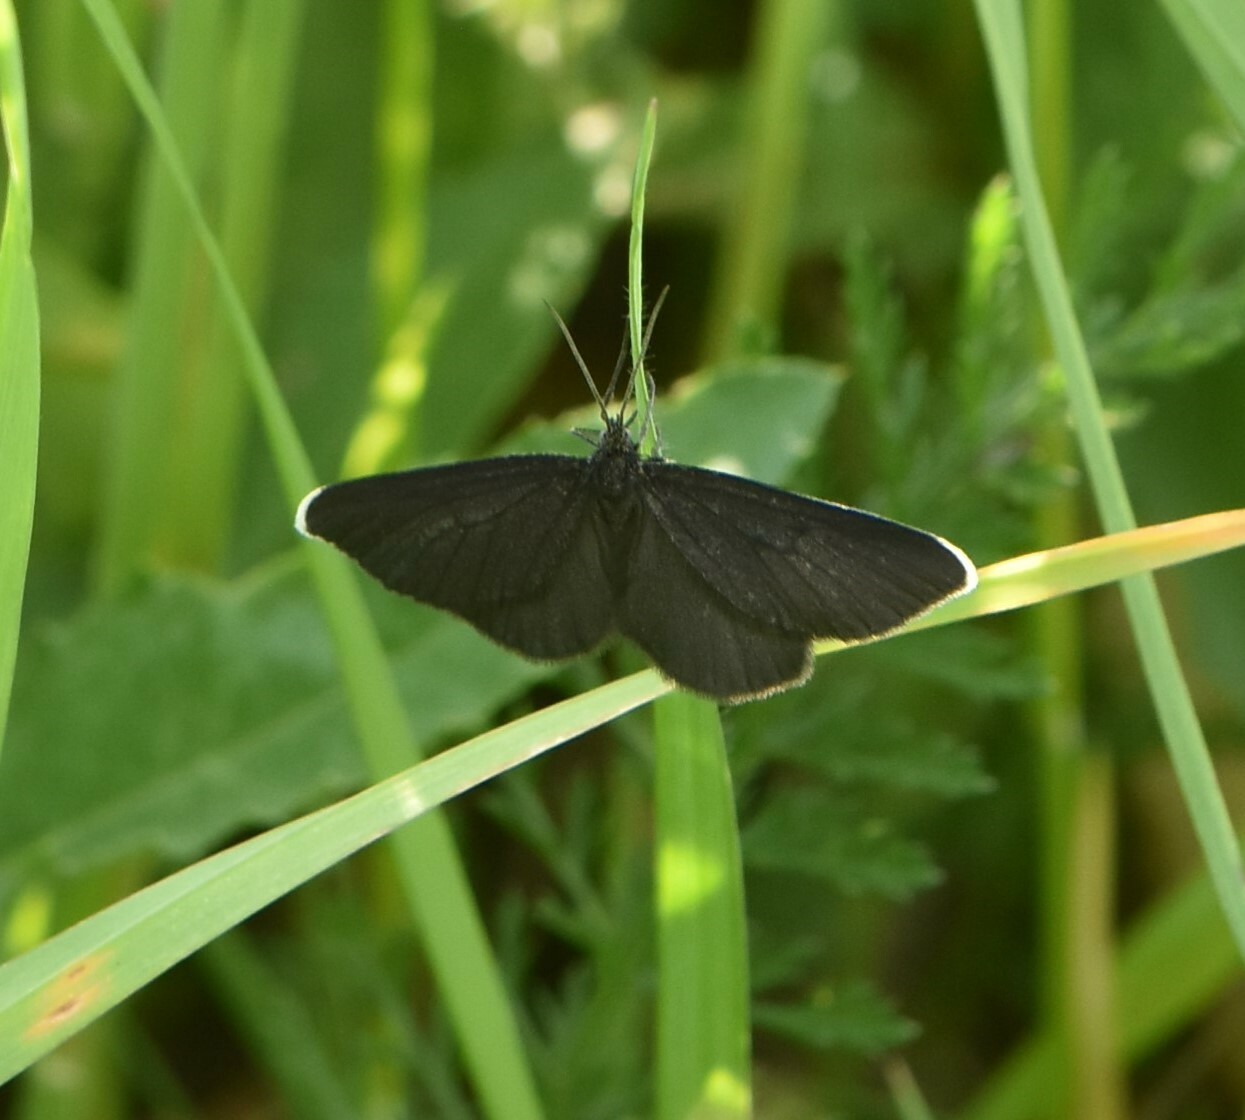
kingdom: Animalia
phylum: Arthropoda
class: Insecta
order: Lepidoptera
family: Geometridae
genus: Odezia
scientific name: Odezia atrata
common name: Chimney sweeper
